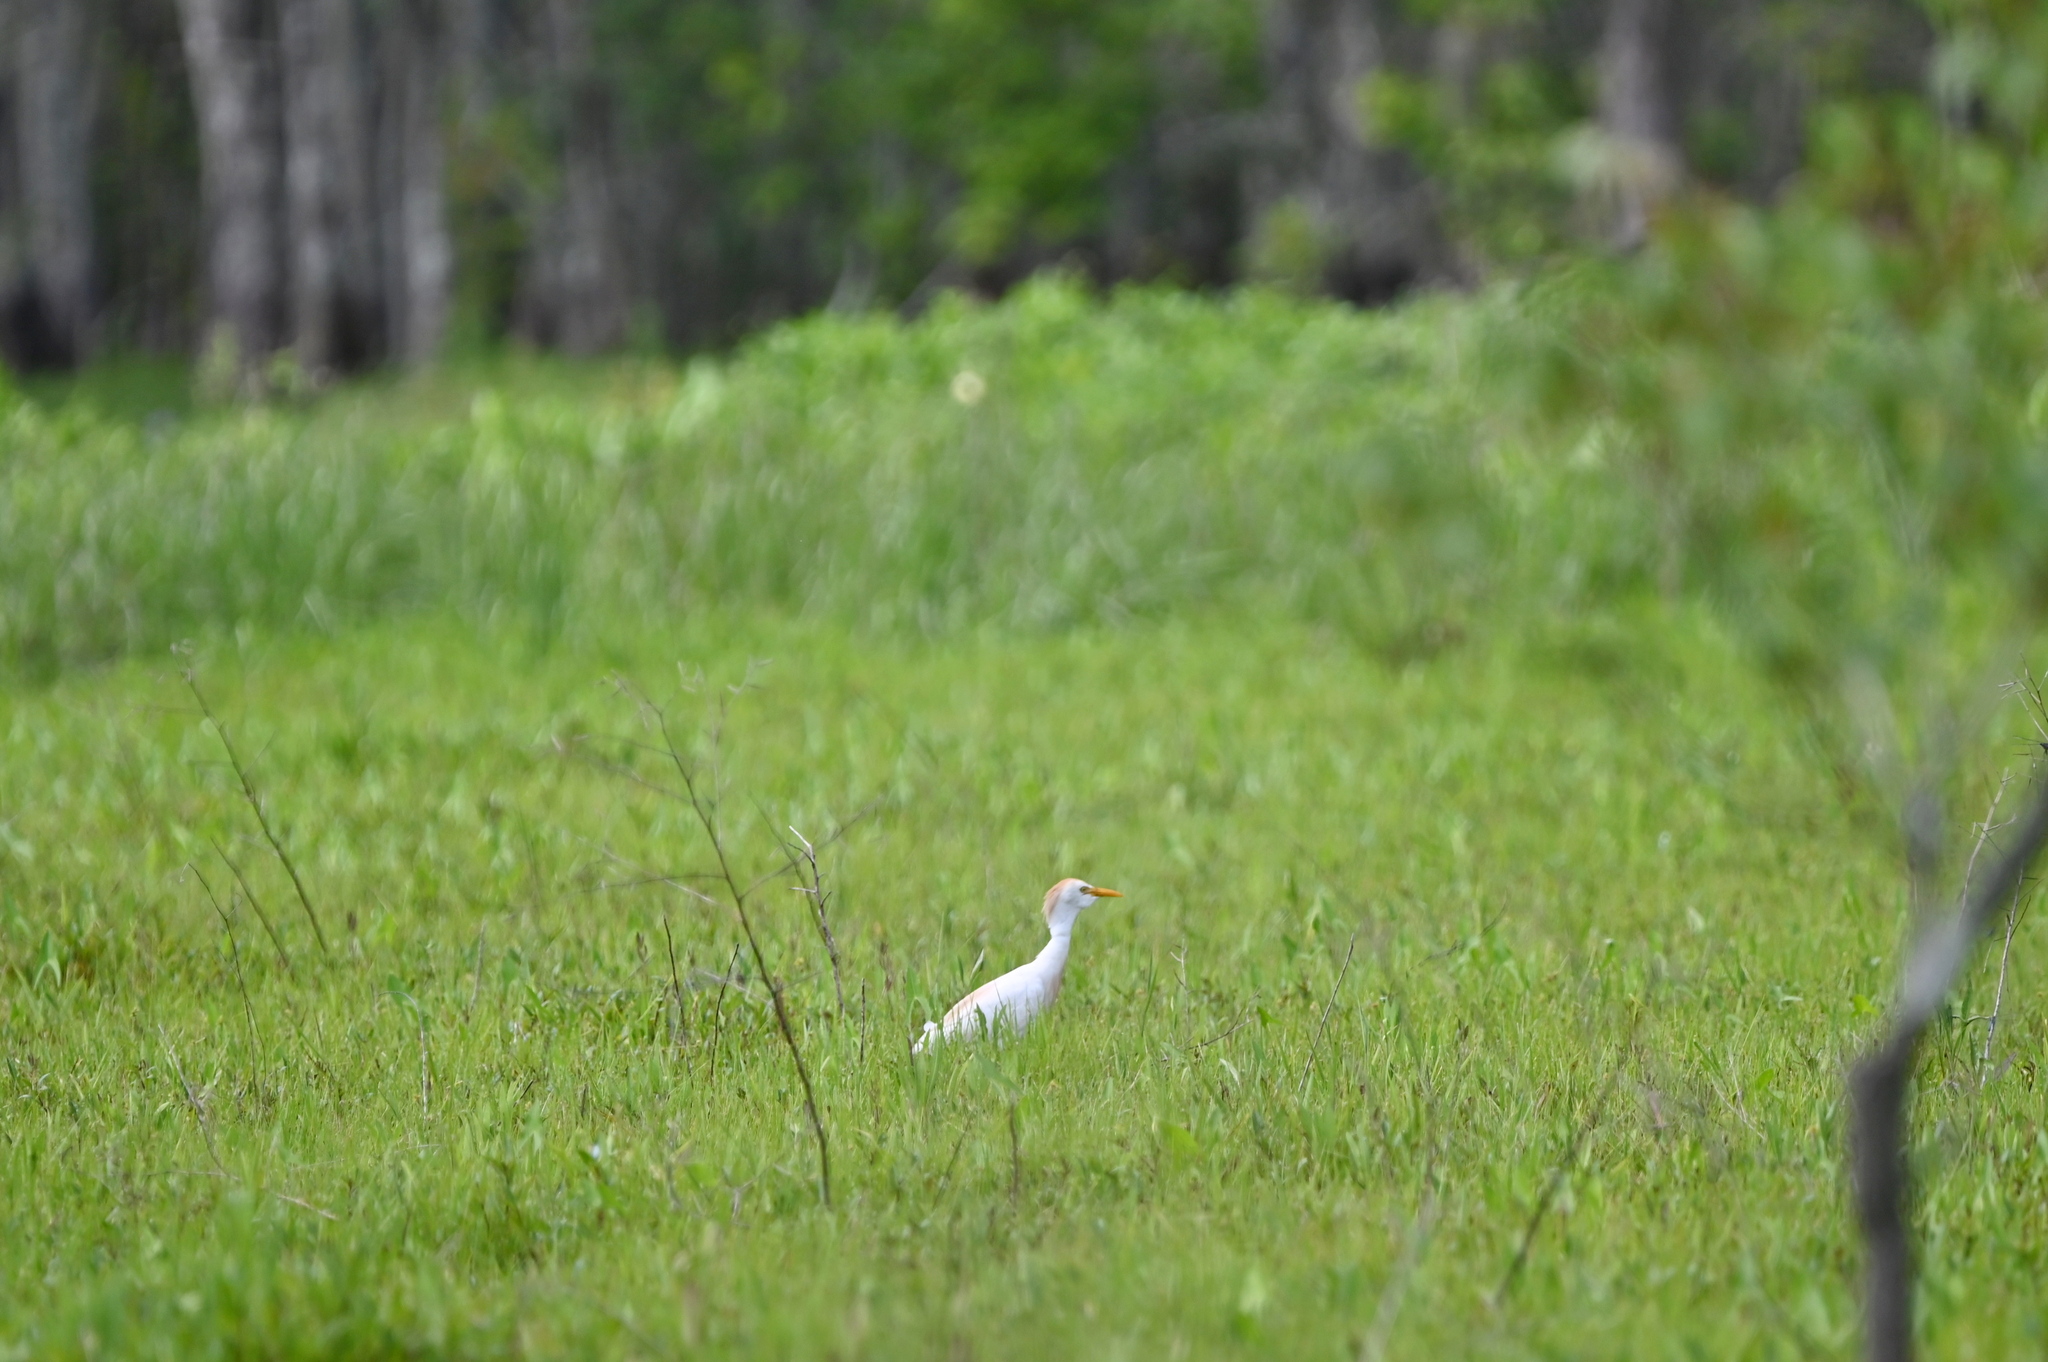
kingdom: Animalia
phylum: Chordata
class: Aves
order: Pelecaniformes
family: Ardeidae
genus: Bubulcus
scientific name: Bubulcus ibis
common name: Cattle egret
